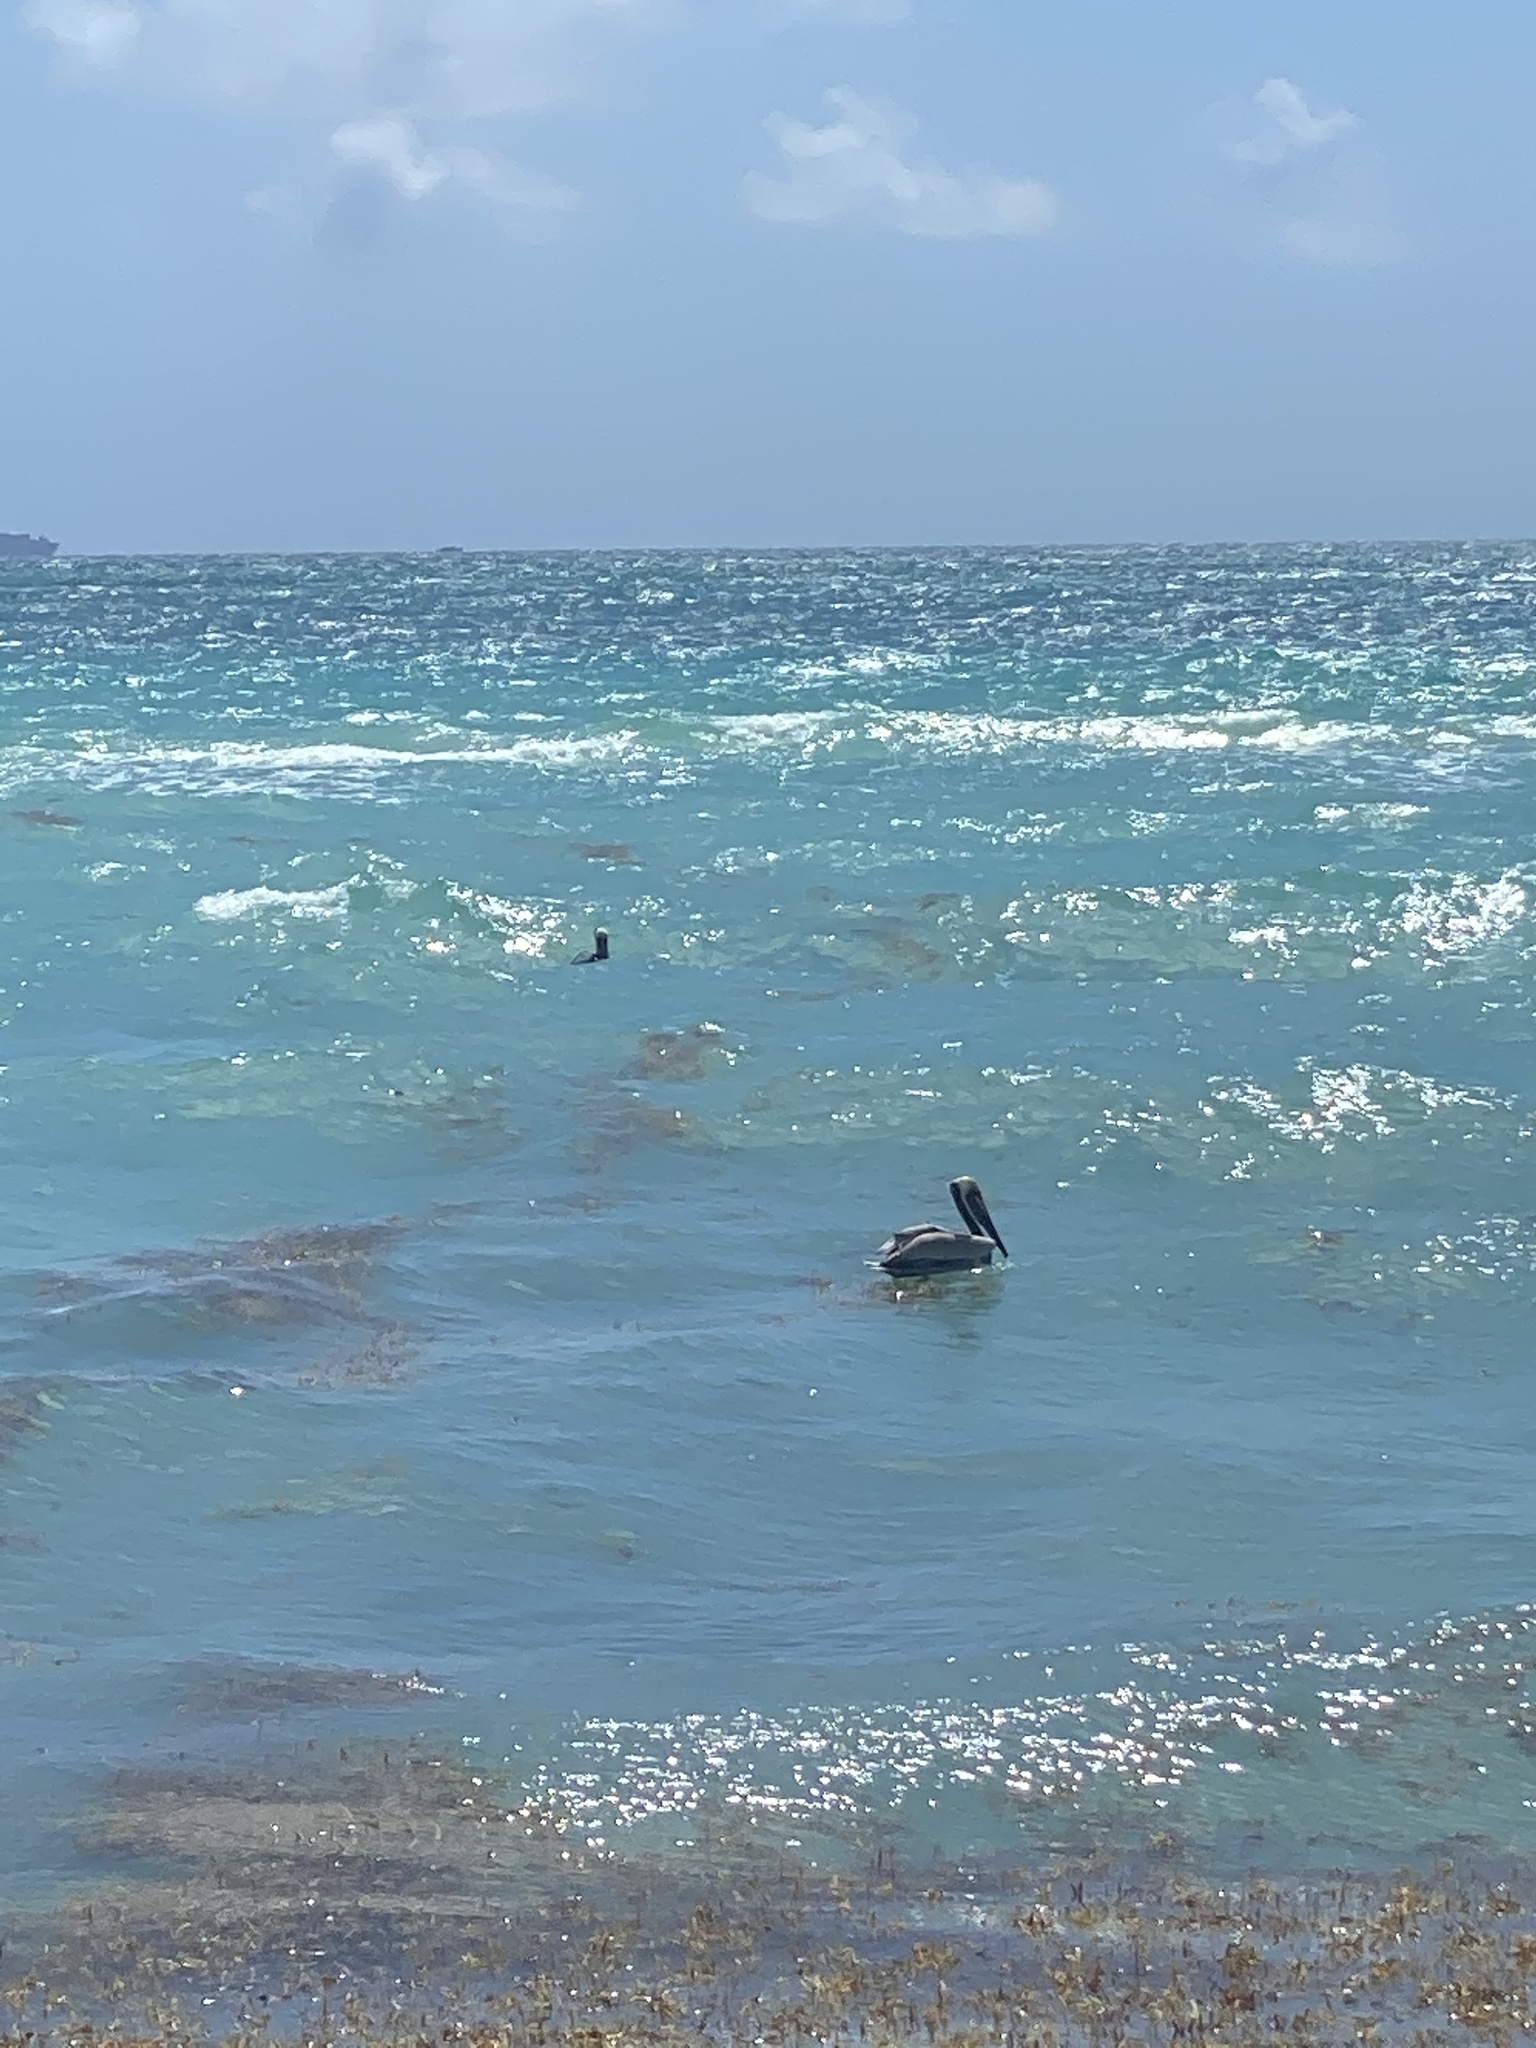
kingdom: Animalia
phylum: Chordata
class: Aves
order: Pelecaniformes
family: Pelecanidae
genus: Pelecanus
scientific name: Pelecanus occidentalis
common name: Brown pelican
